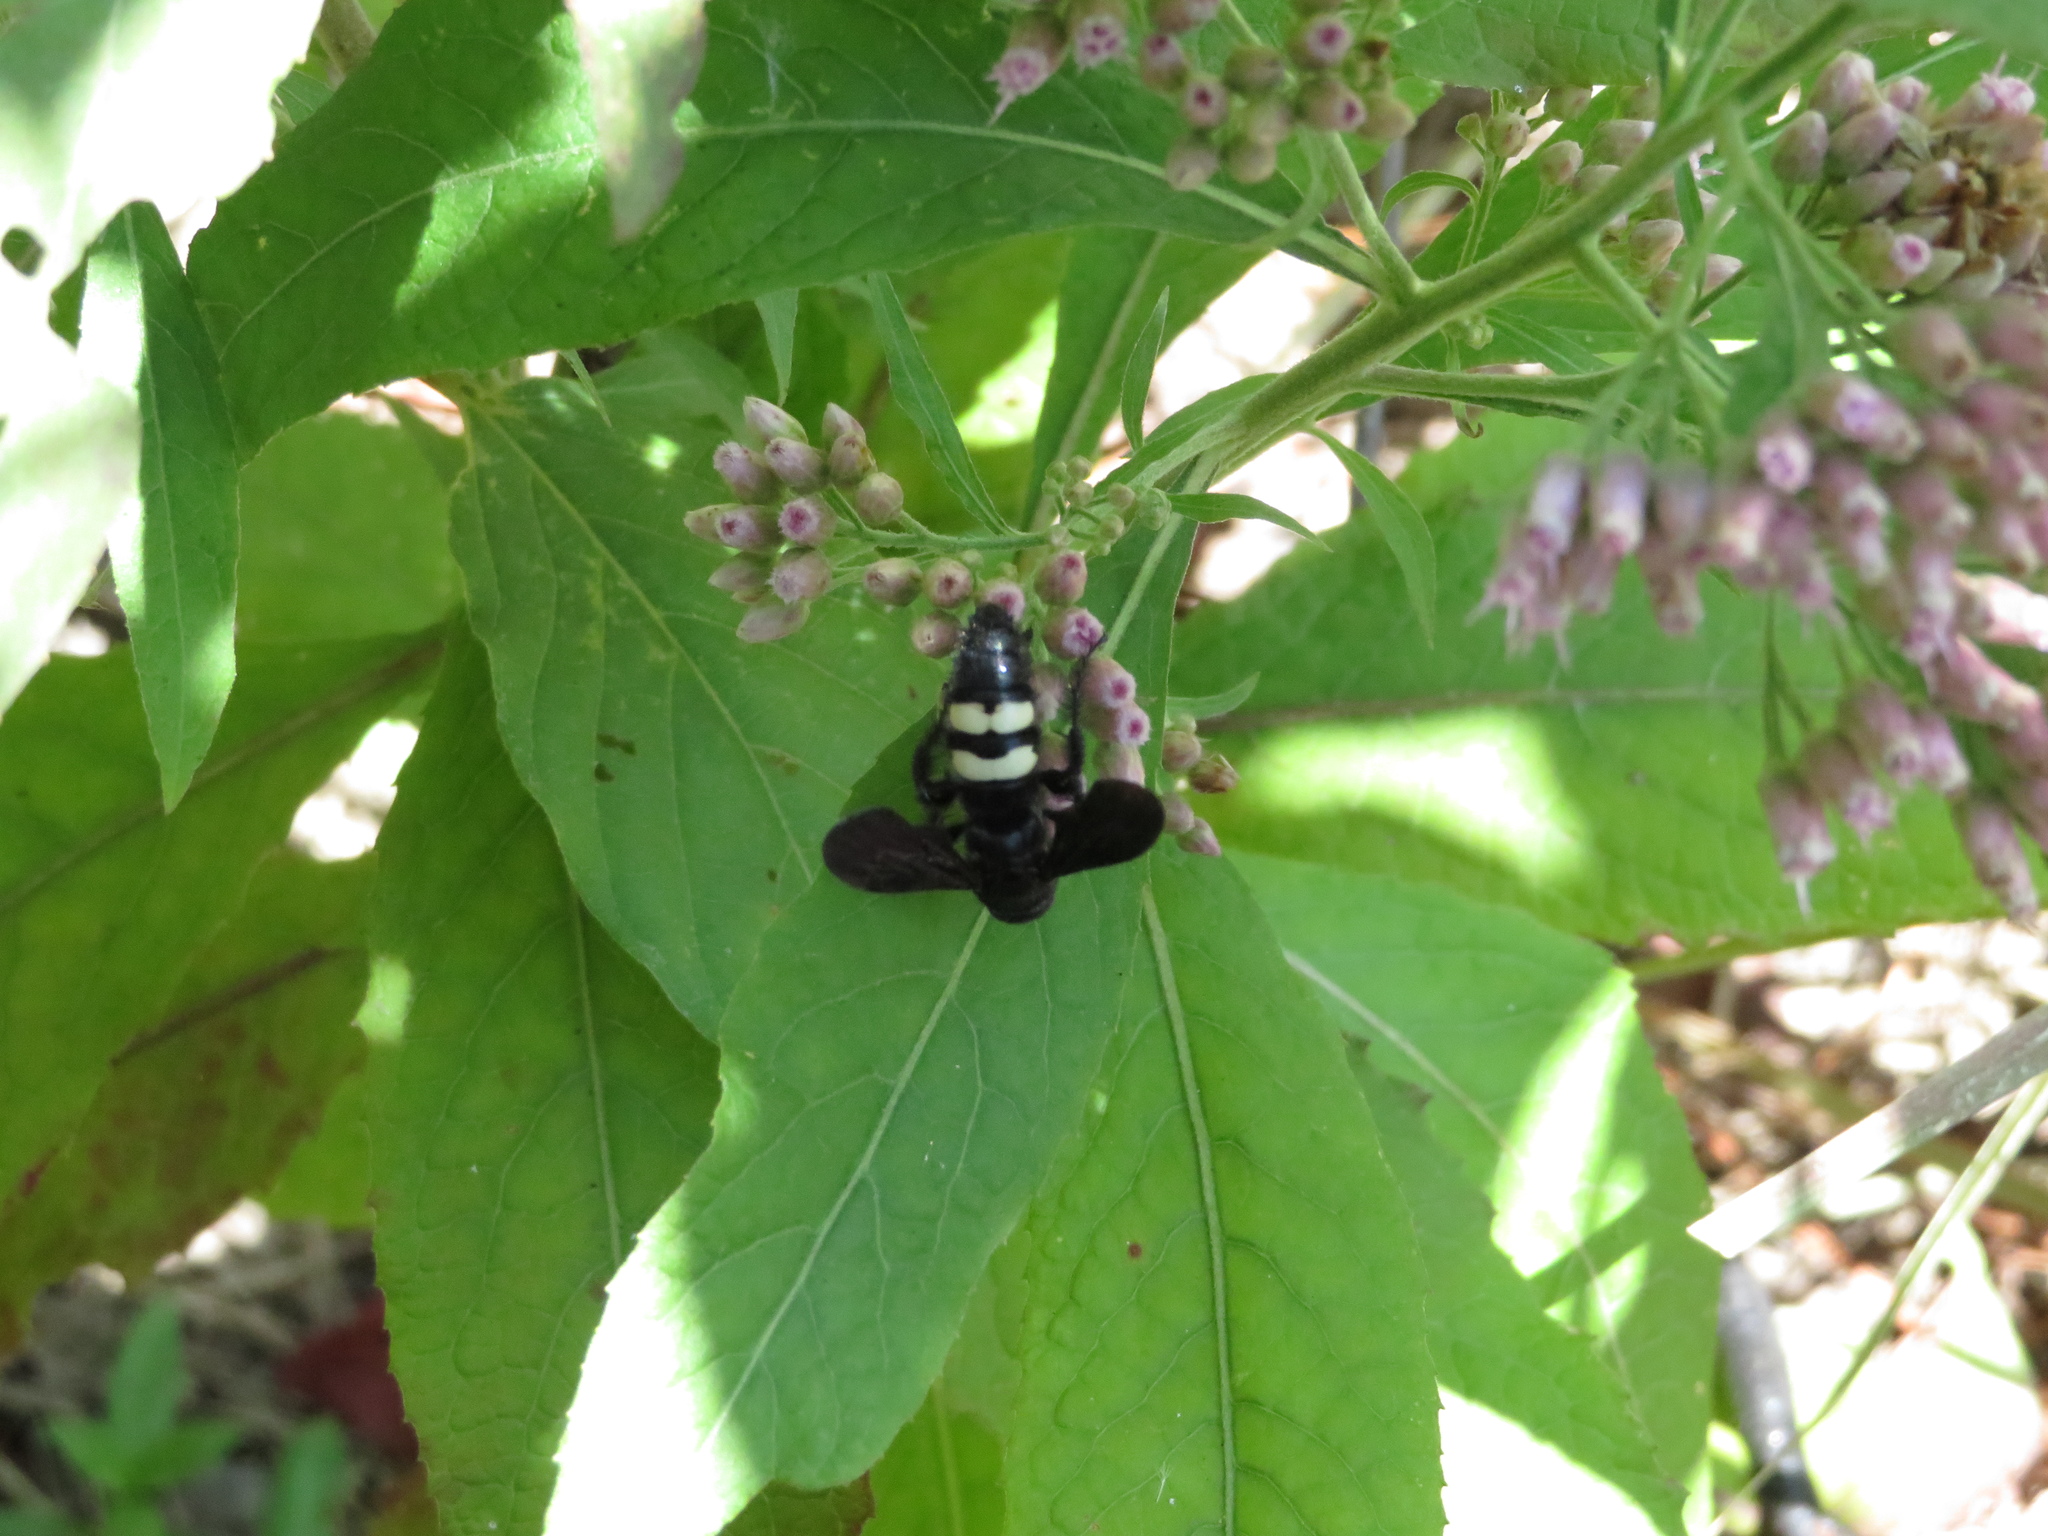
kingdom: Animalia
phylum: Arthropoda
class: Insecta
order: Hymenoptera
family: Scoliidae
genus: Scolia
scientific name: Scolia bicincta
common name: Double-banded scoliid wasp
